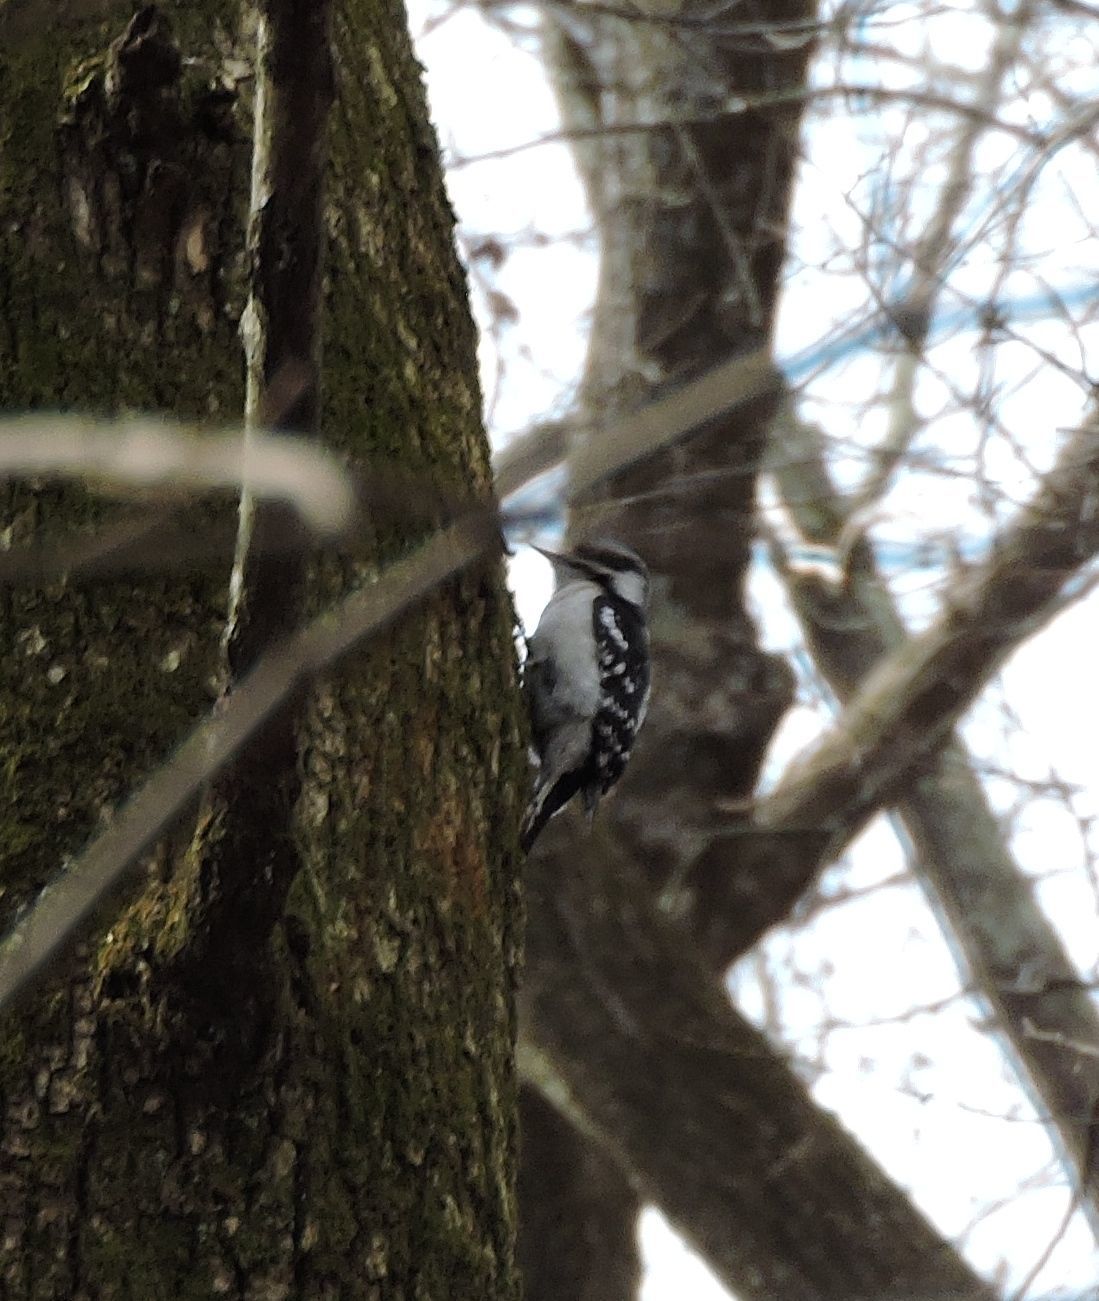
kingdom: Animalia
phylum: Chordata
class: Aves
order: Piciformes
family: Picidae
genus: Dryobates
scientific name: Dryobates pubescens
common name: Downy woodpecker
